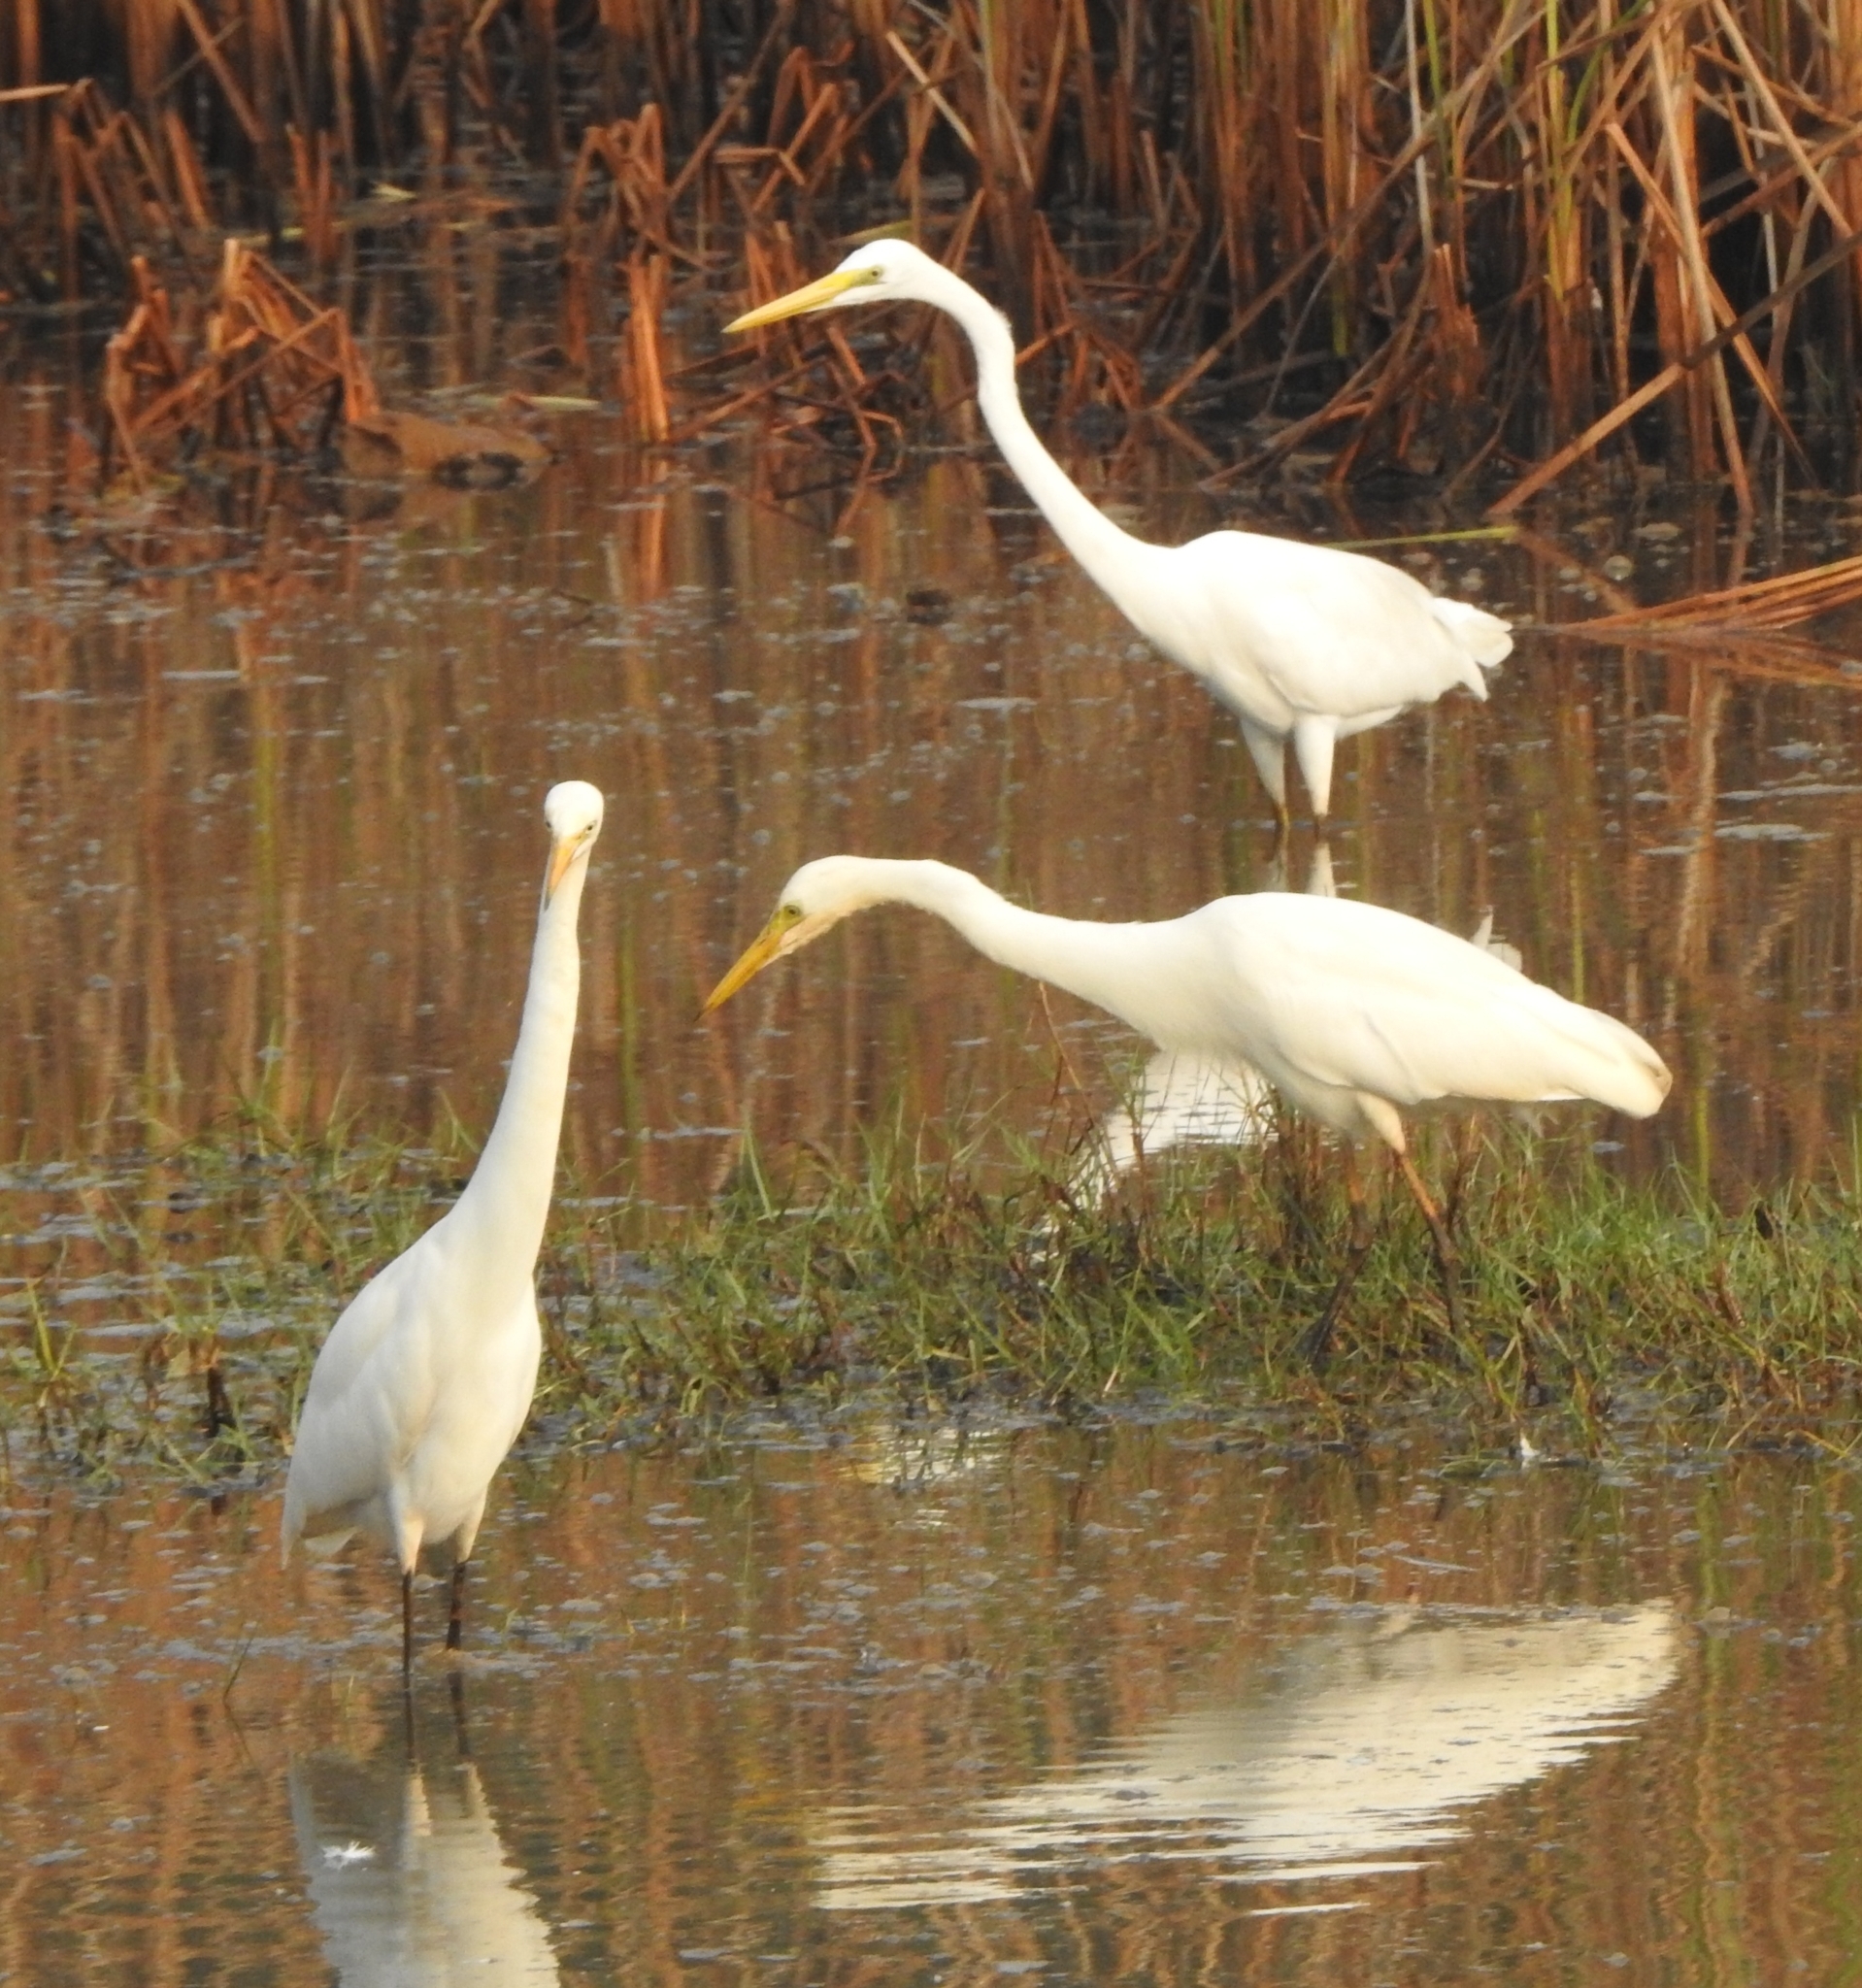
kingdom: Animalia
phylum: Chordata
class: Aves
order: Pelecaniformes
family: Ardeidae
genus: Egretta
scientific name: Egretta intermedia
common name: Intermediate egret
